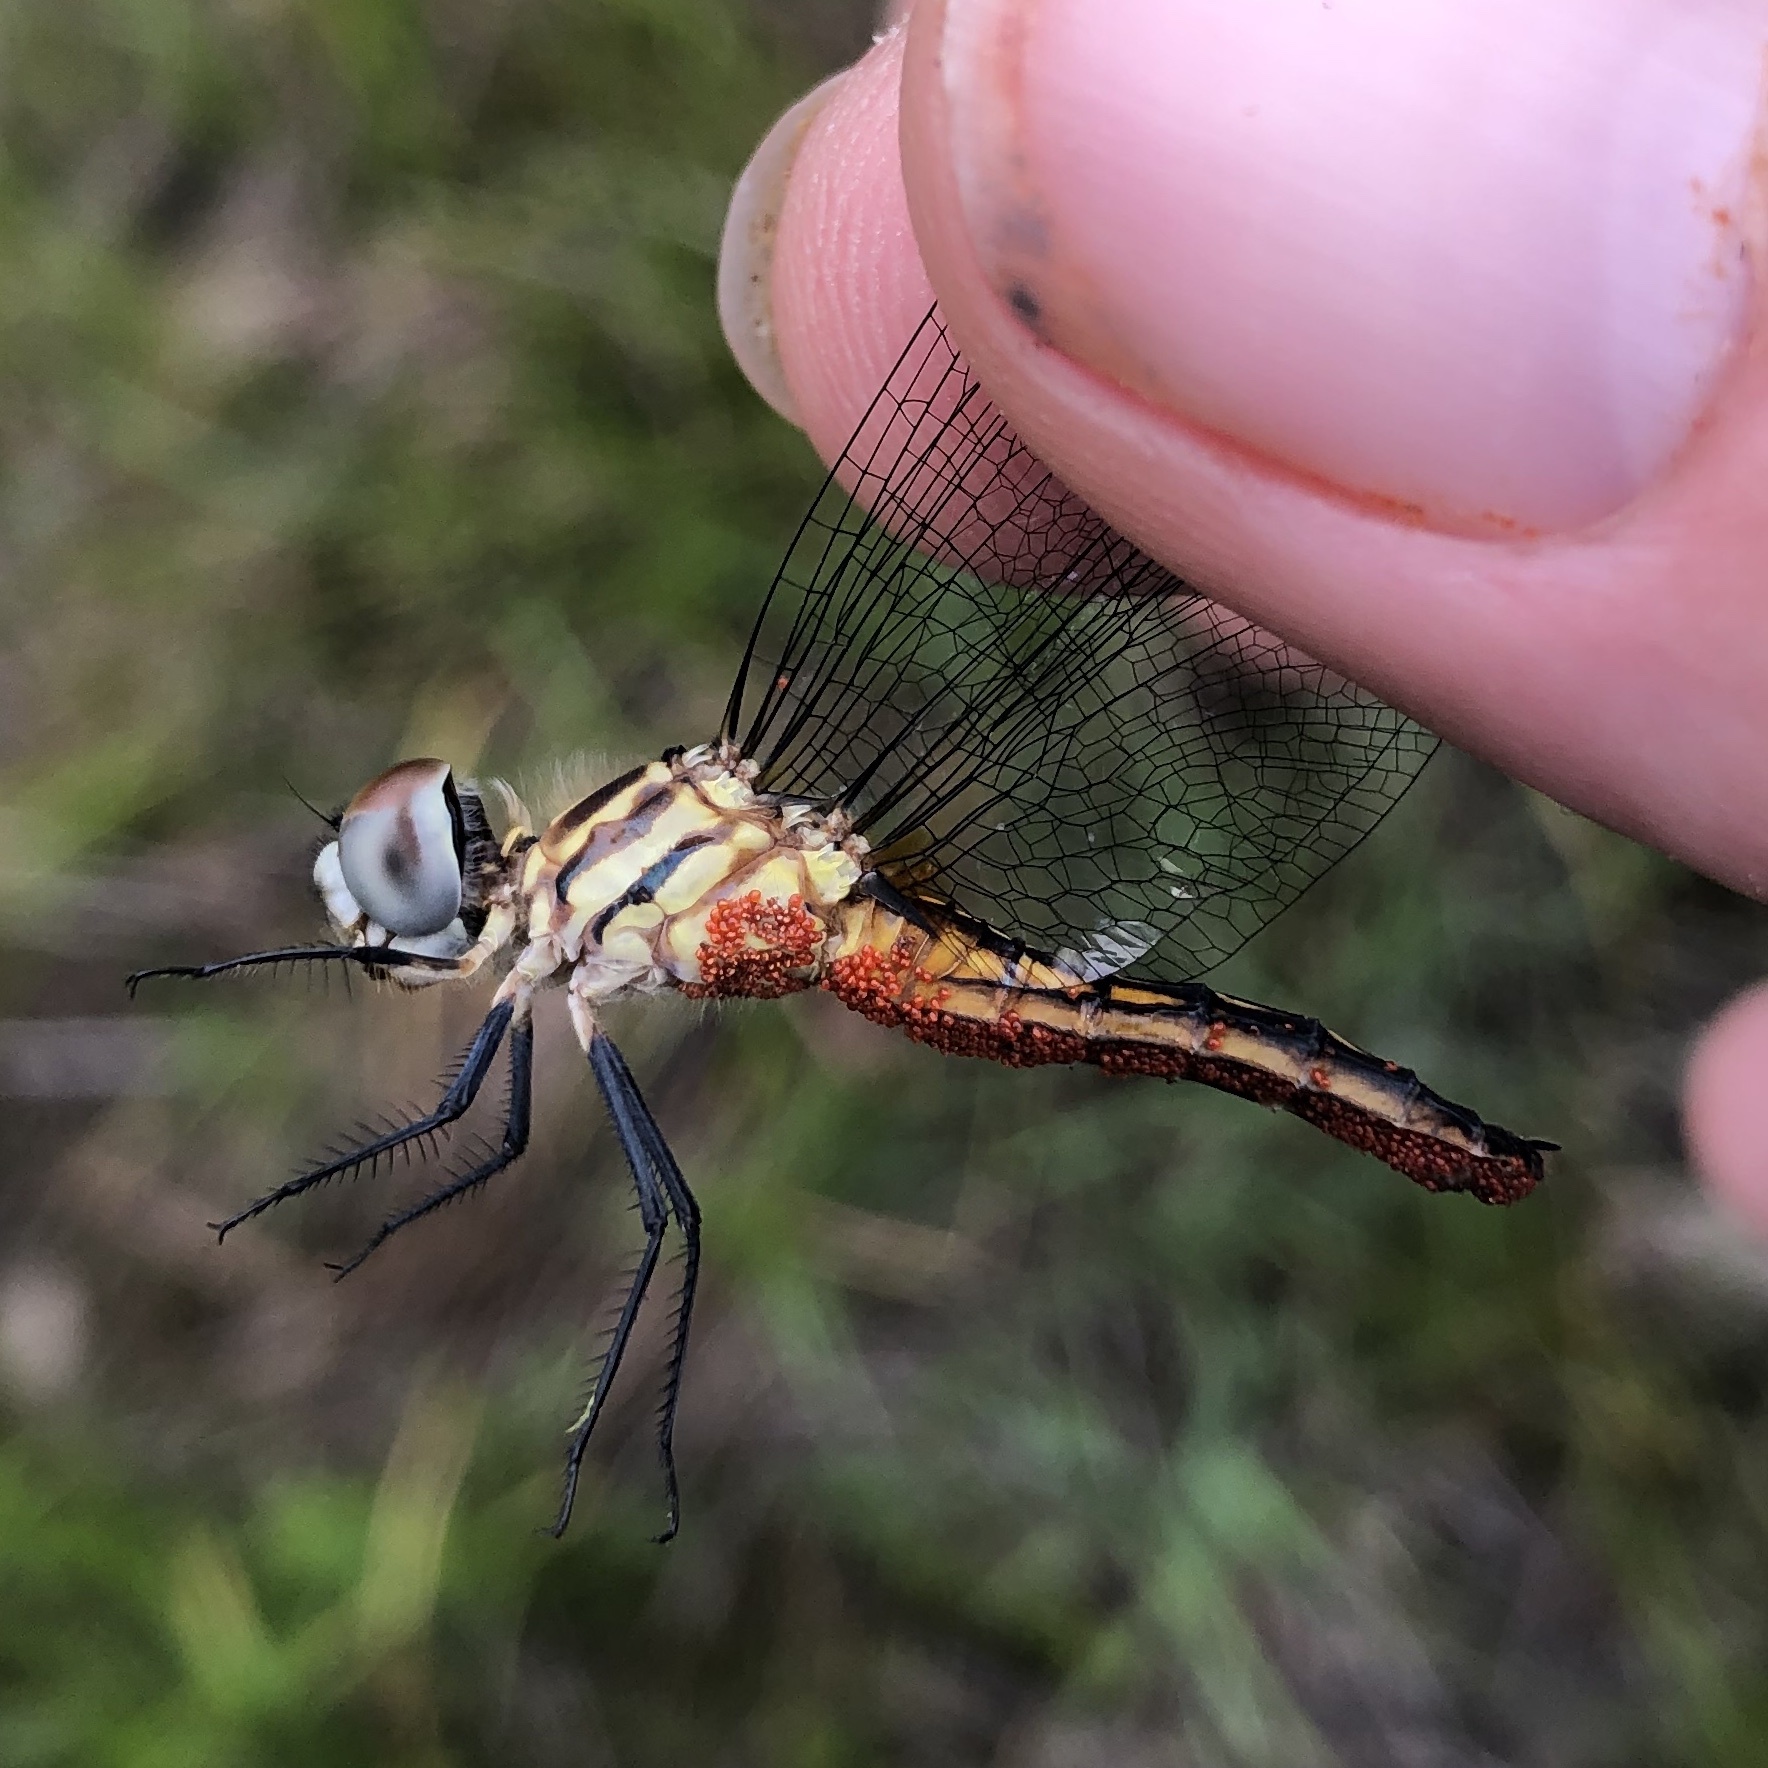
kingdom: Animalia
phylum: Arthropoda
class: Insecta
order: Odonata
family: Libellulidae
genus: Pachydiplax
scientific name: Pachydiplax longipennis
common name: Blue dasher
